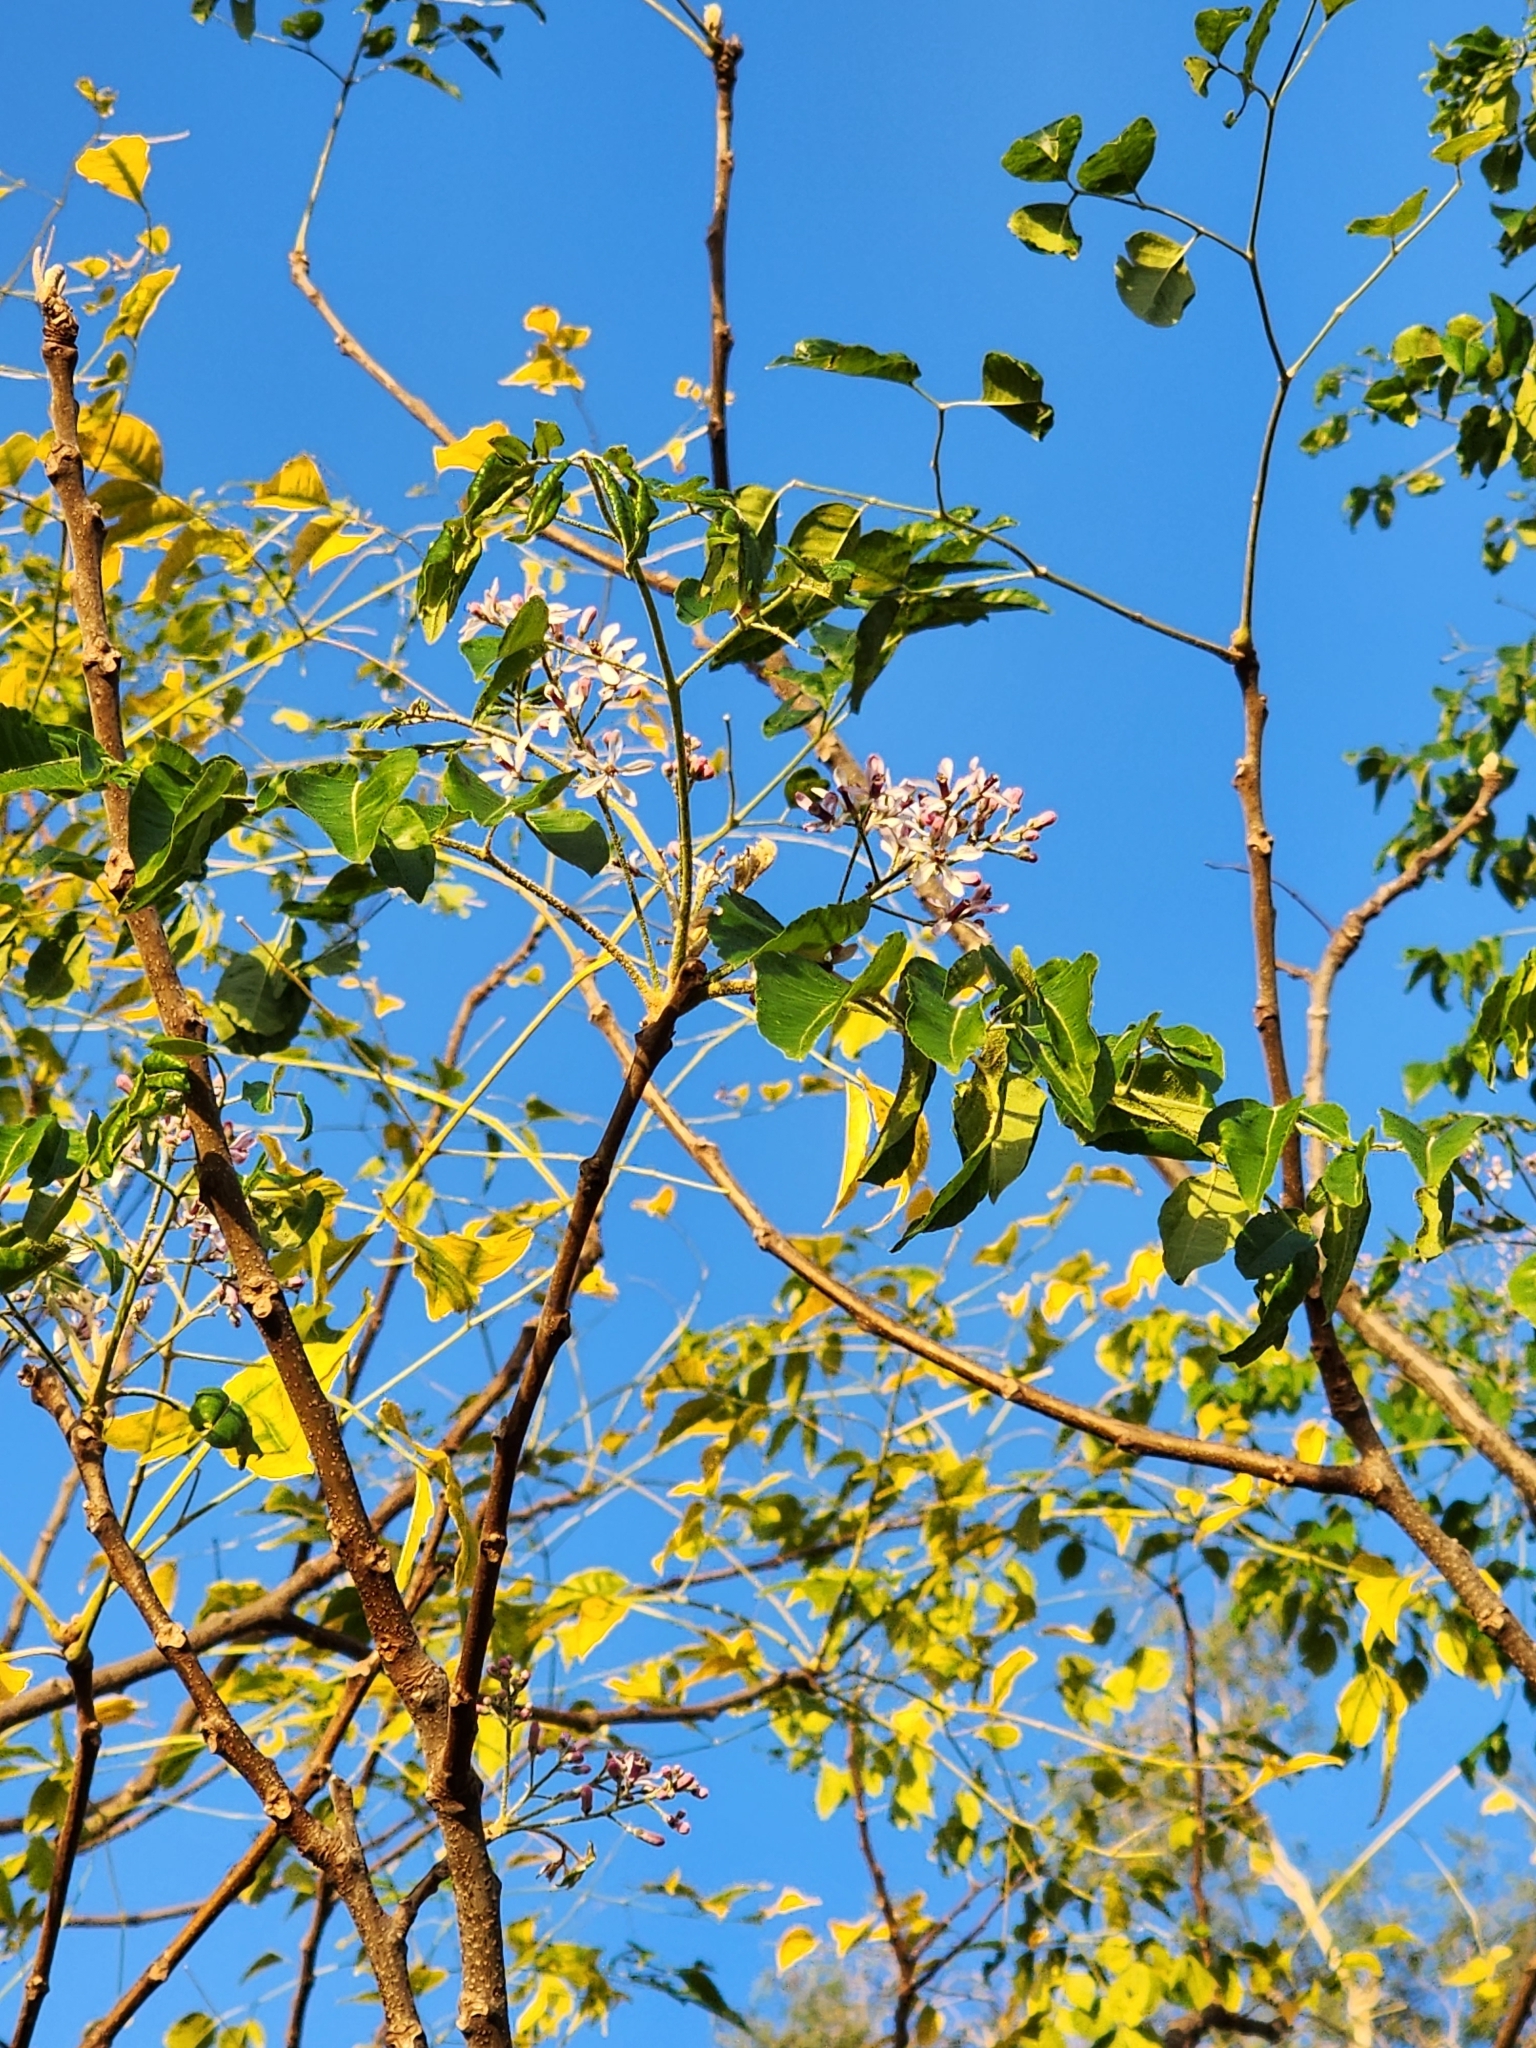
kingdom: Plantae
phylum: Tracheophyta
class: Magnoliopsida
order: Sapindales
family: Meliaceae
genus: Melia
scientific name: Melia azedarach
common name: Chinaberrytree
